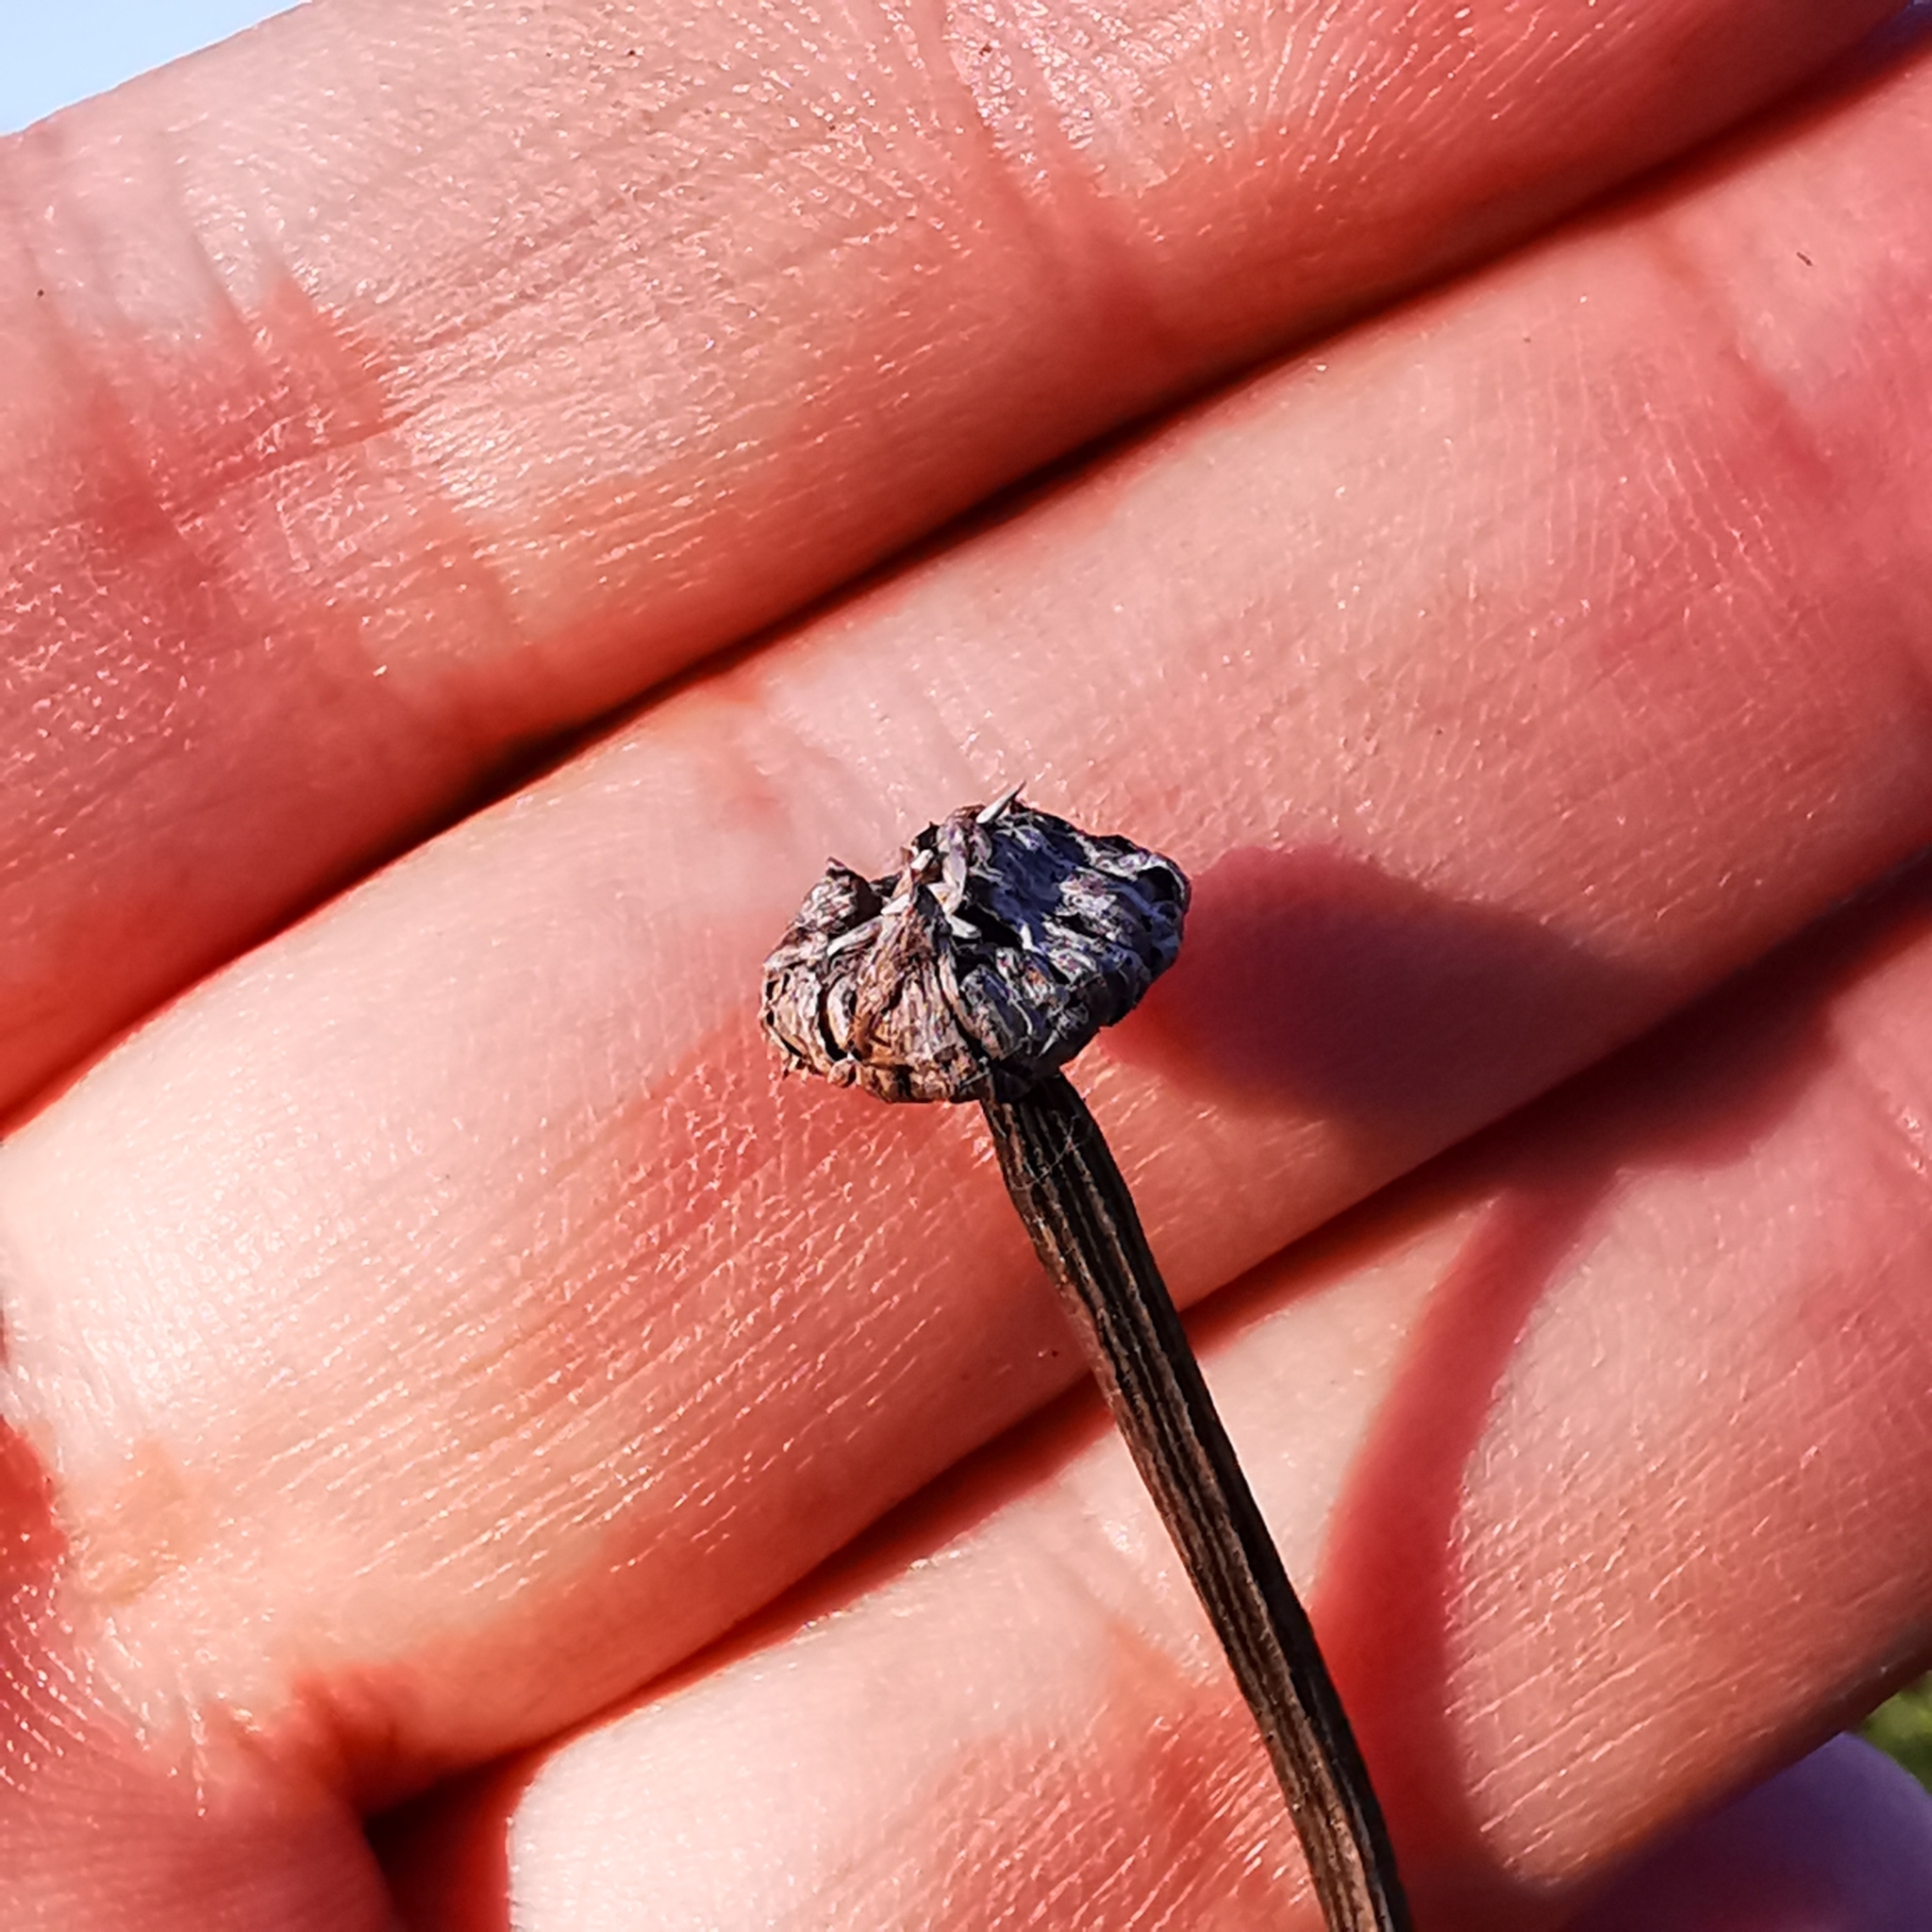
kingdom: Plantae
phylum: Tracheophyta
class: Magnoliopsida
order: Asterales
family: Asteraceae
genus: Leucanthemum
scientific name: Leucanthemum vulgare
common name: Oxeye daisy
